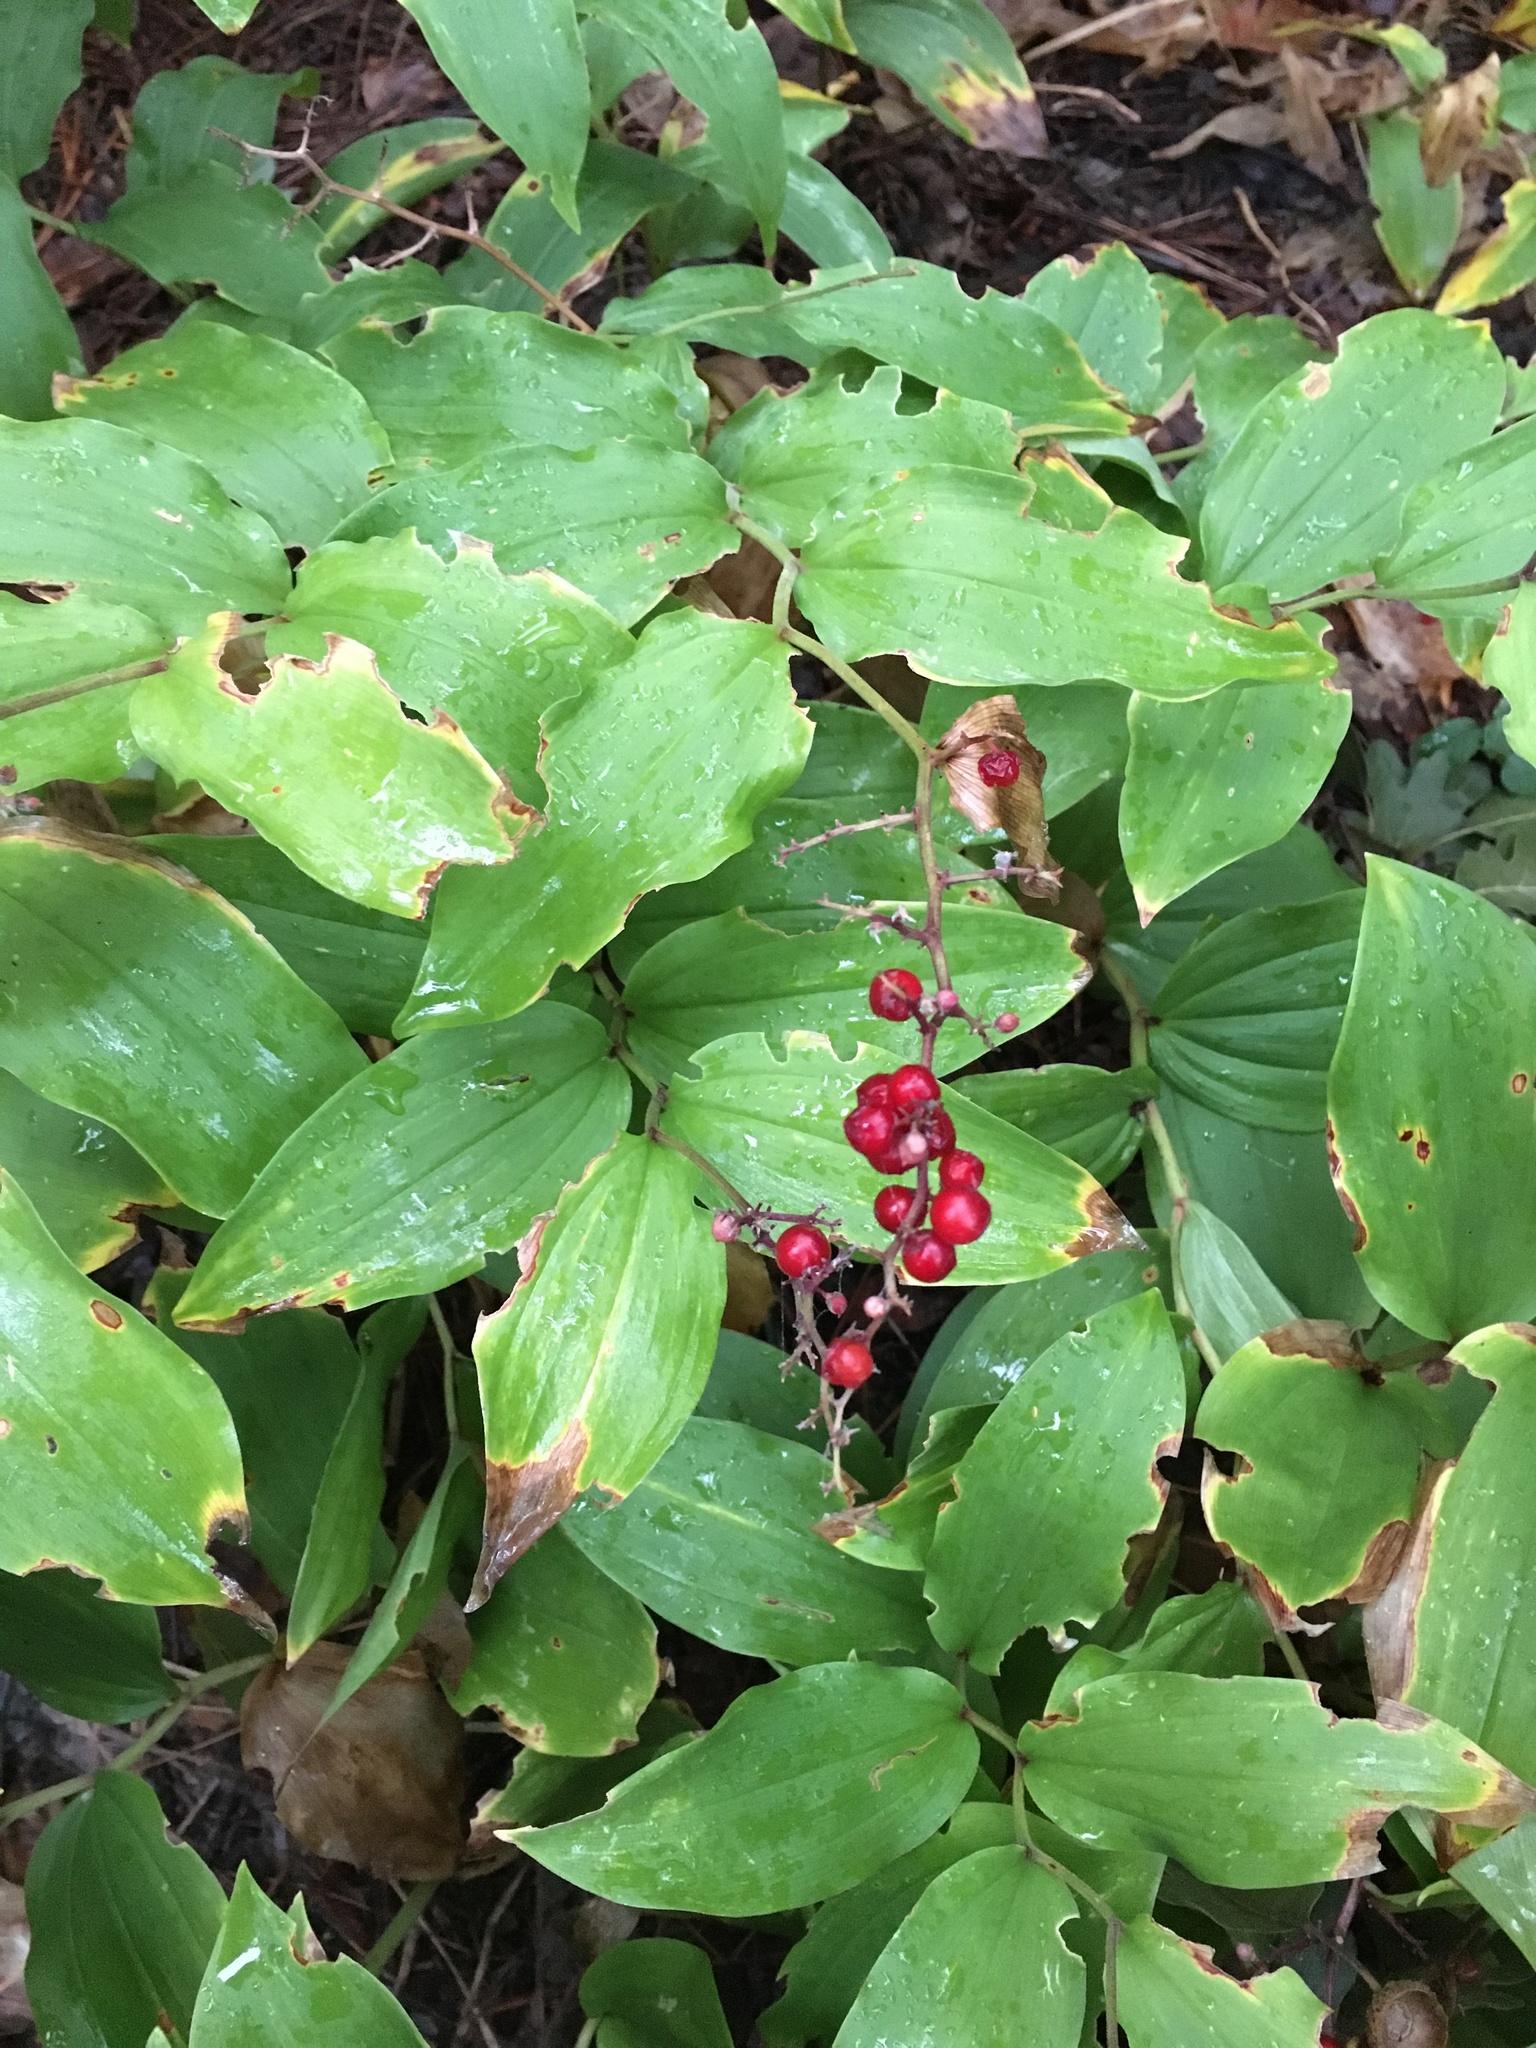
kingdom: Plantae
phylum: Tracheophyta
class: Liliopsida
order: Asparagales
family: Asparagaceae
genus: Maianthemum
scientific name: Maianthemum racemosum
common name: False spikenard
